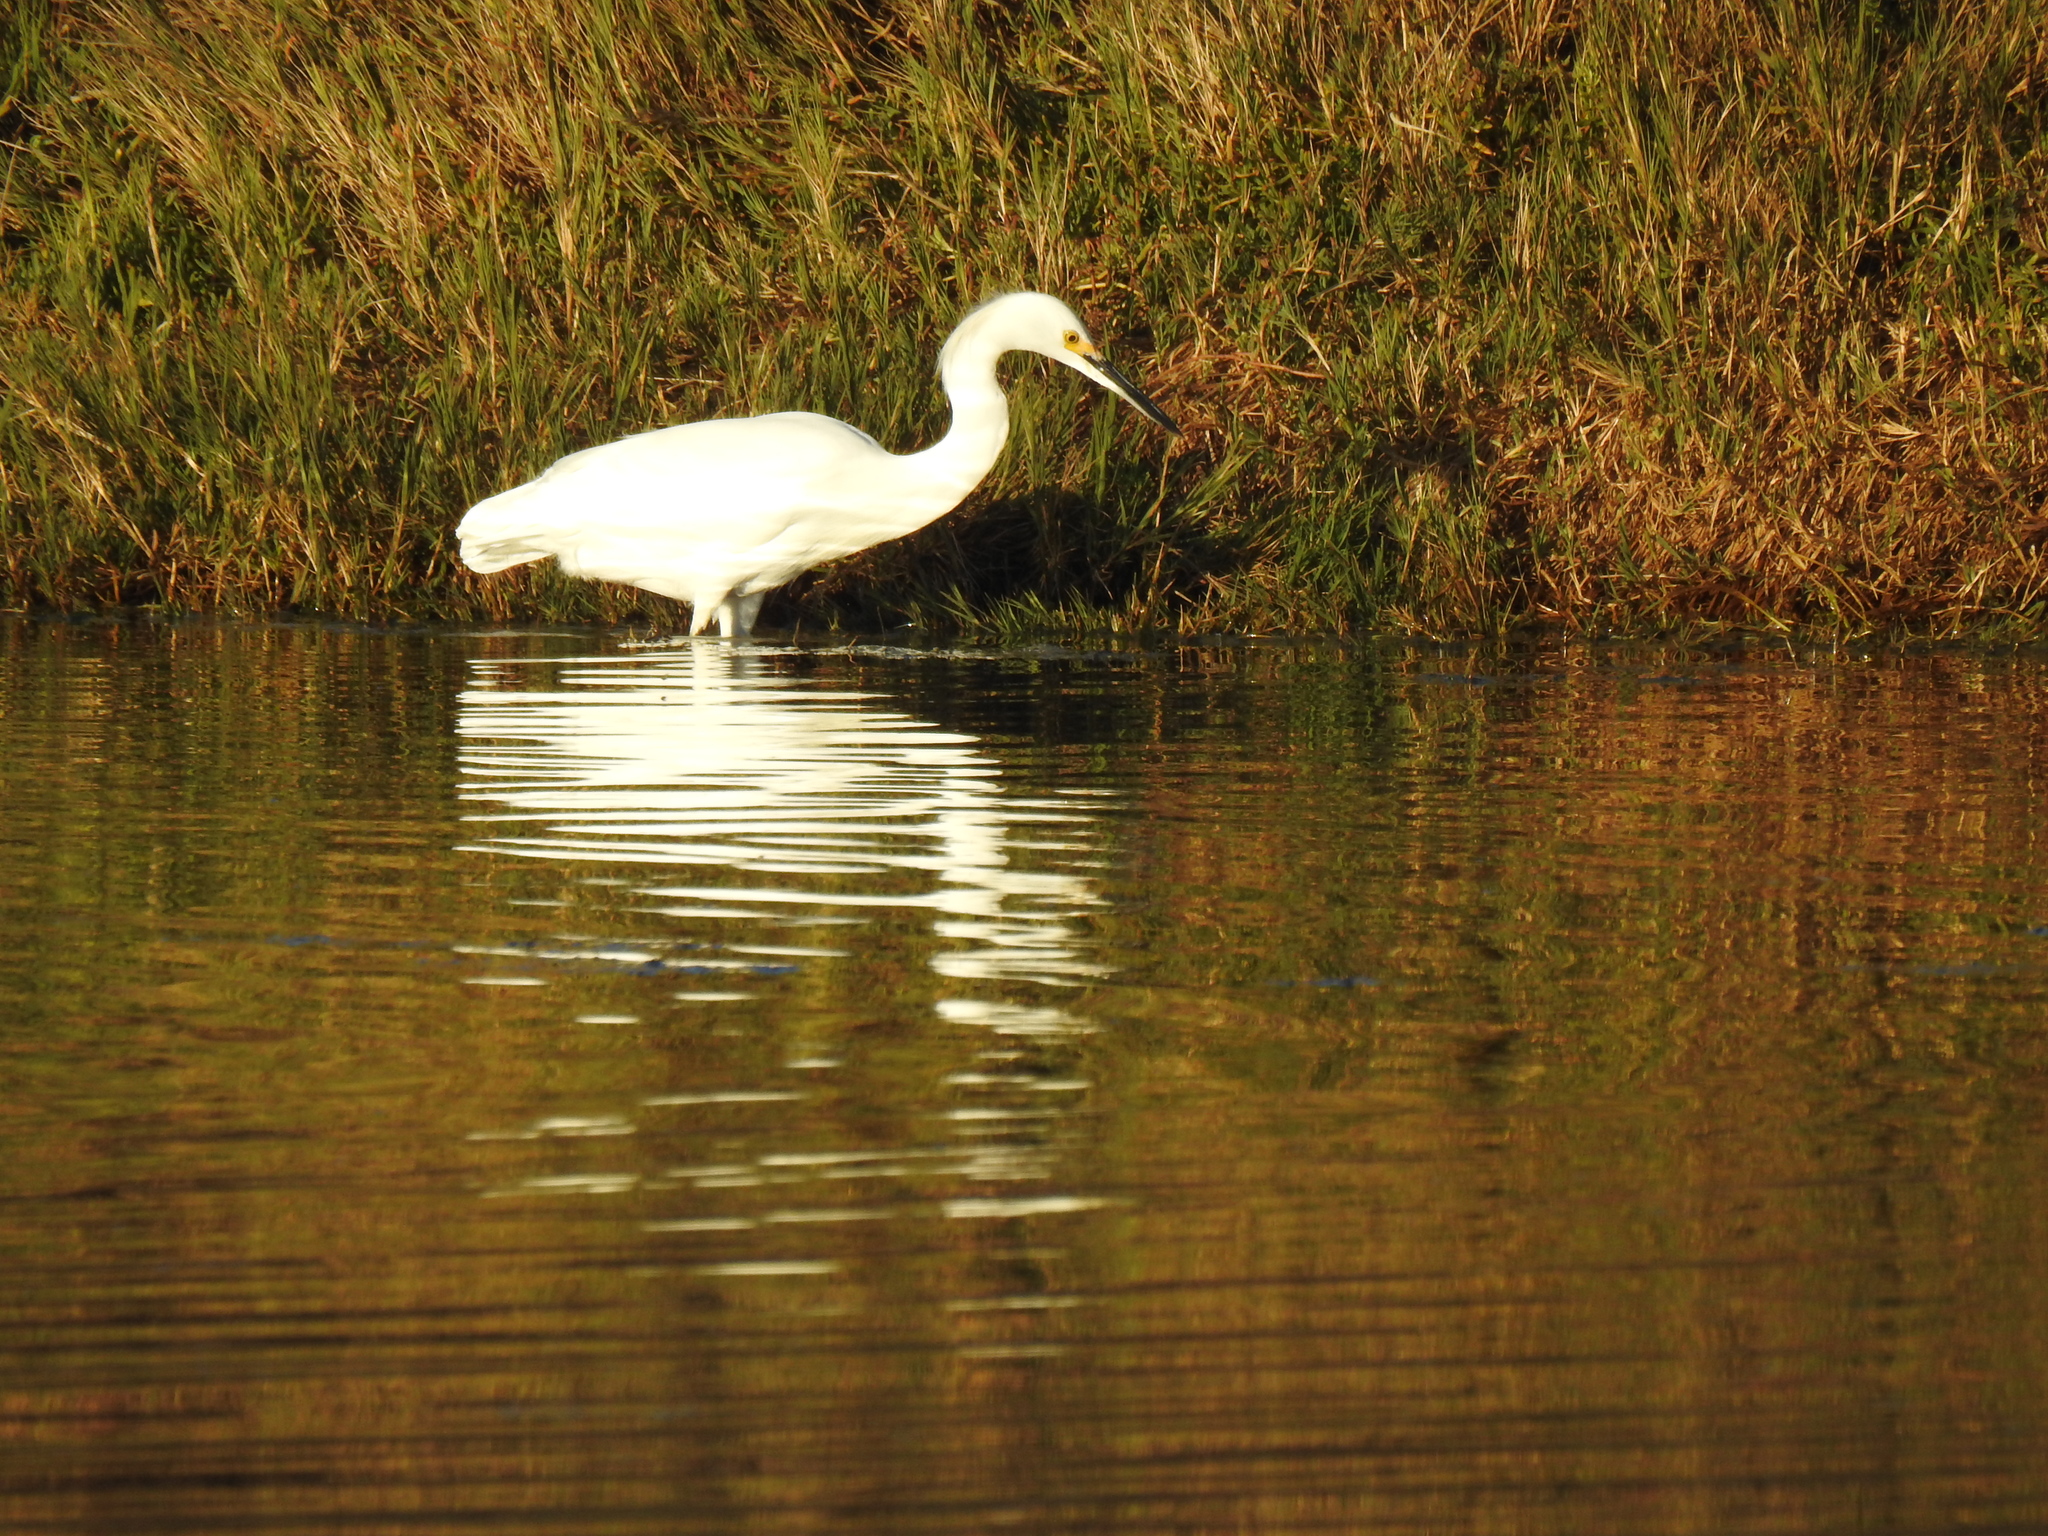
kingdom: Animalia
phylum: Chordata
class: Aves
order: Pelecaniformes
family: Ardeidae
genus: Egretta
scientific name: Egretta thula
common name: Snowy egret
